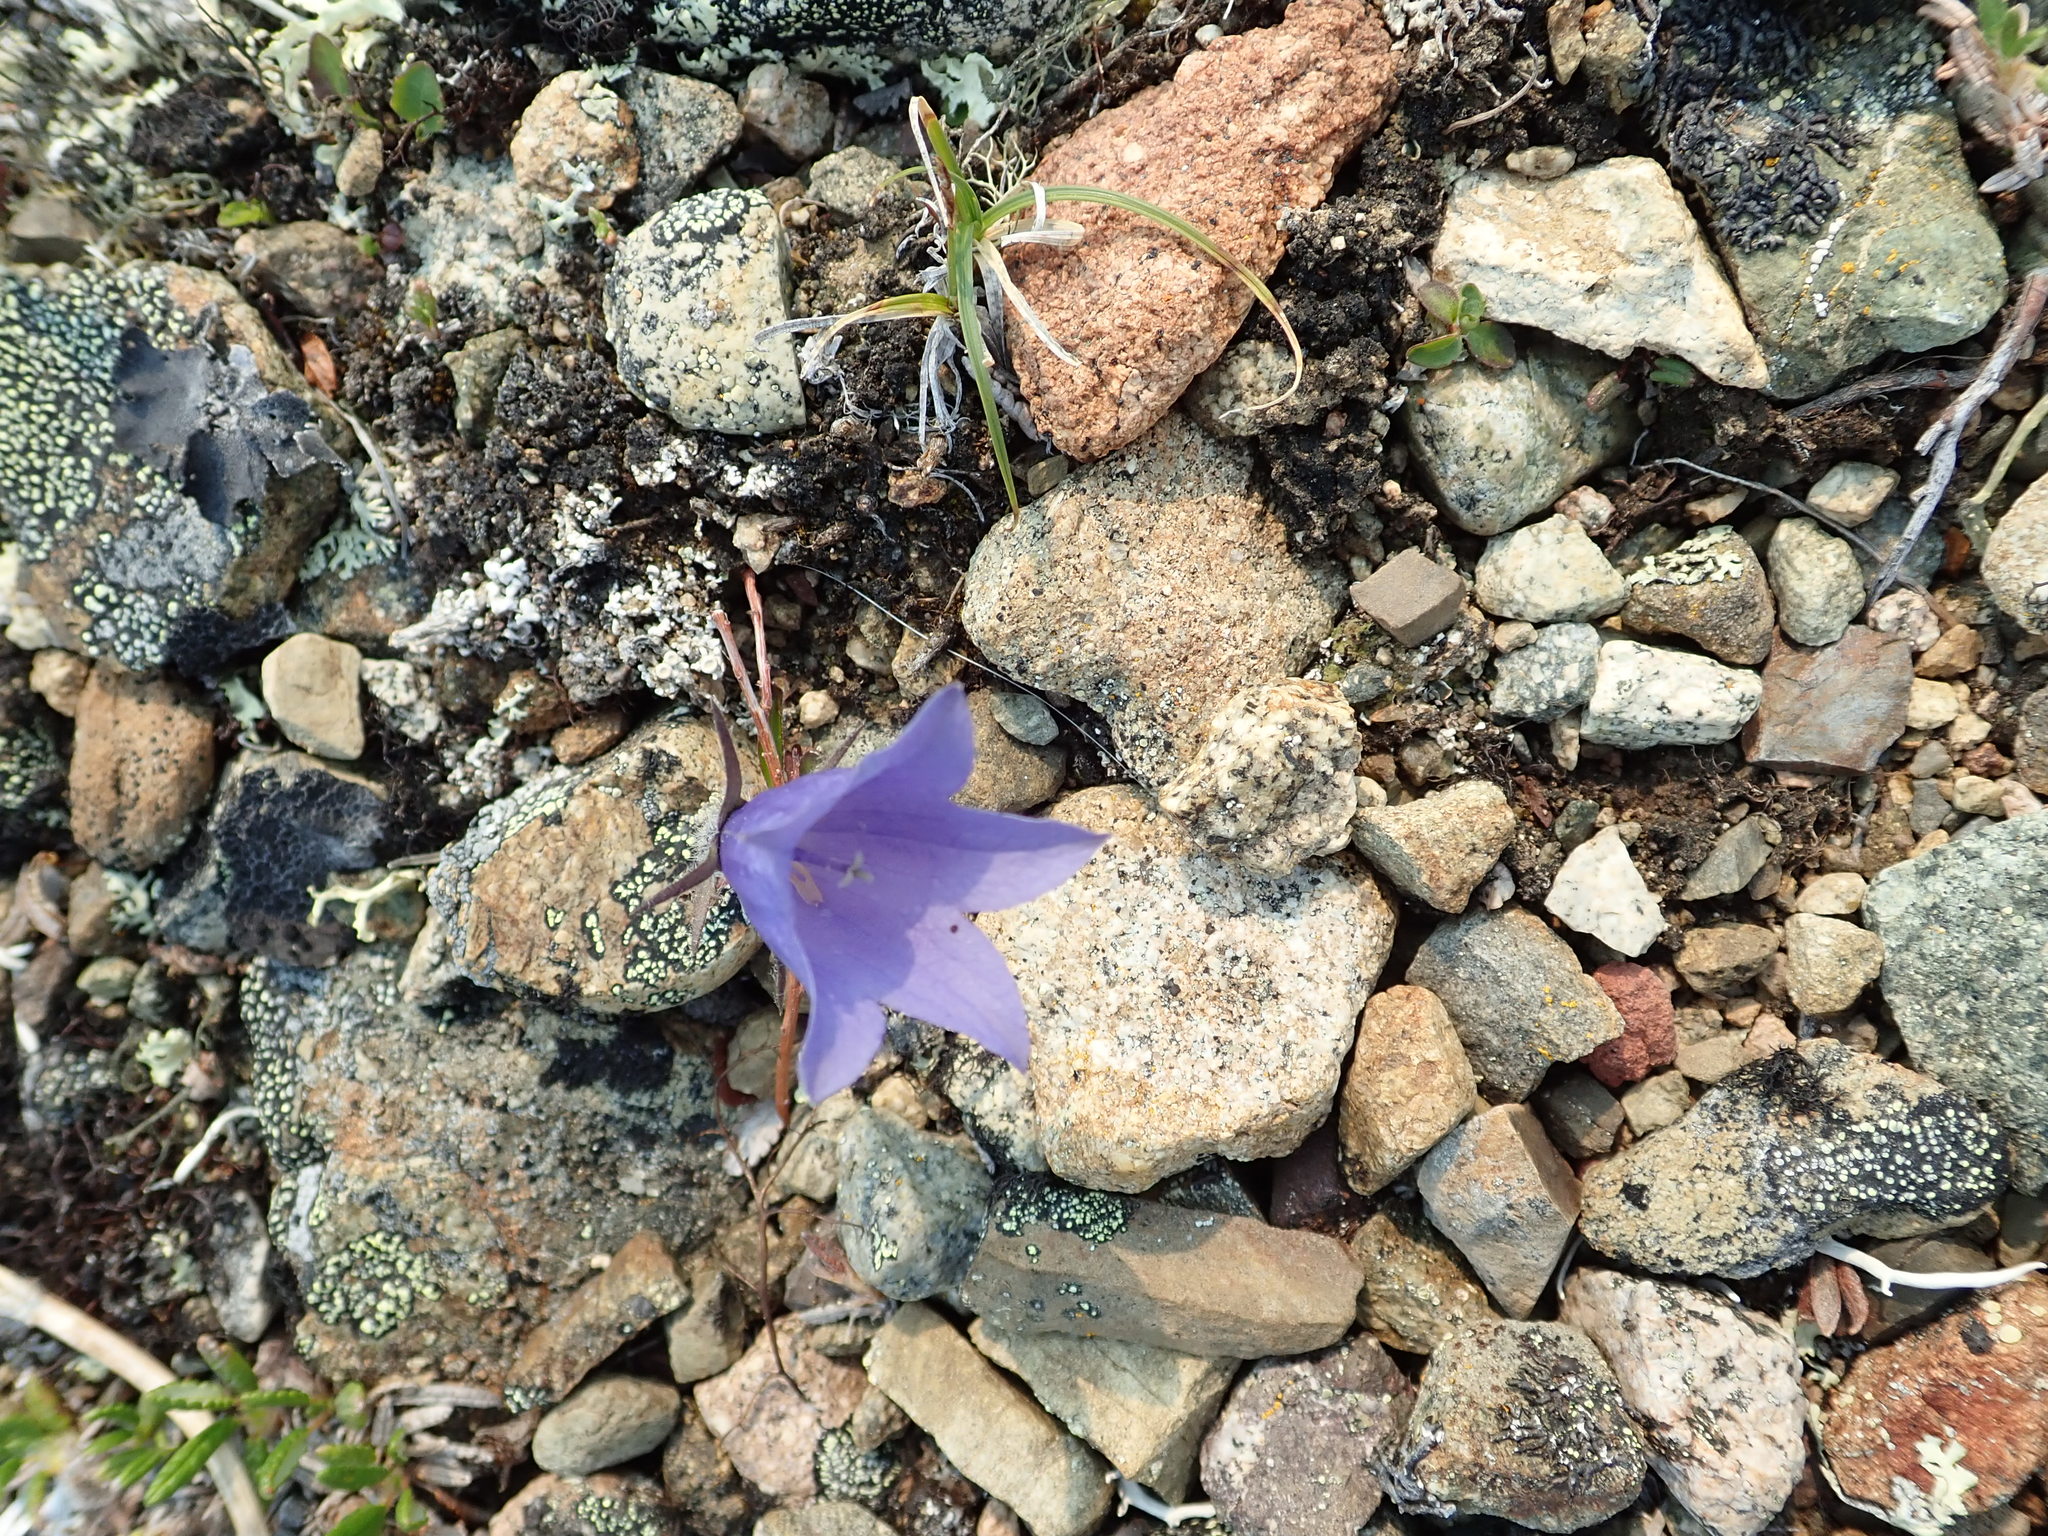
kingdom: Plantae
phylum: Tracheophyta
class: Magnoliopsida
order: Asterales
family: Campanulaceae
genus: Campanula
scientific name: Campanula lasiocarpa
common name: Mountain harebell
